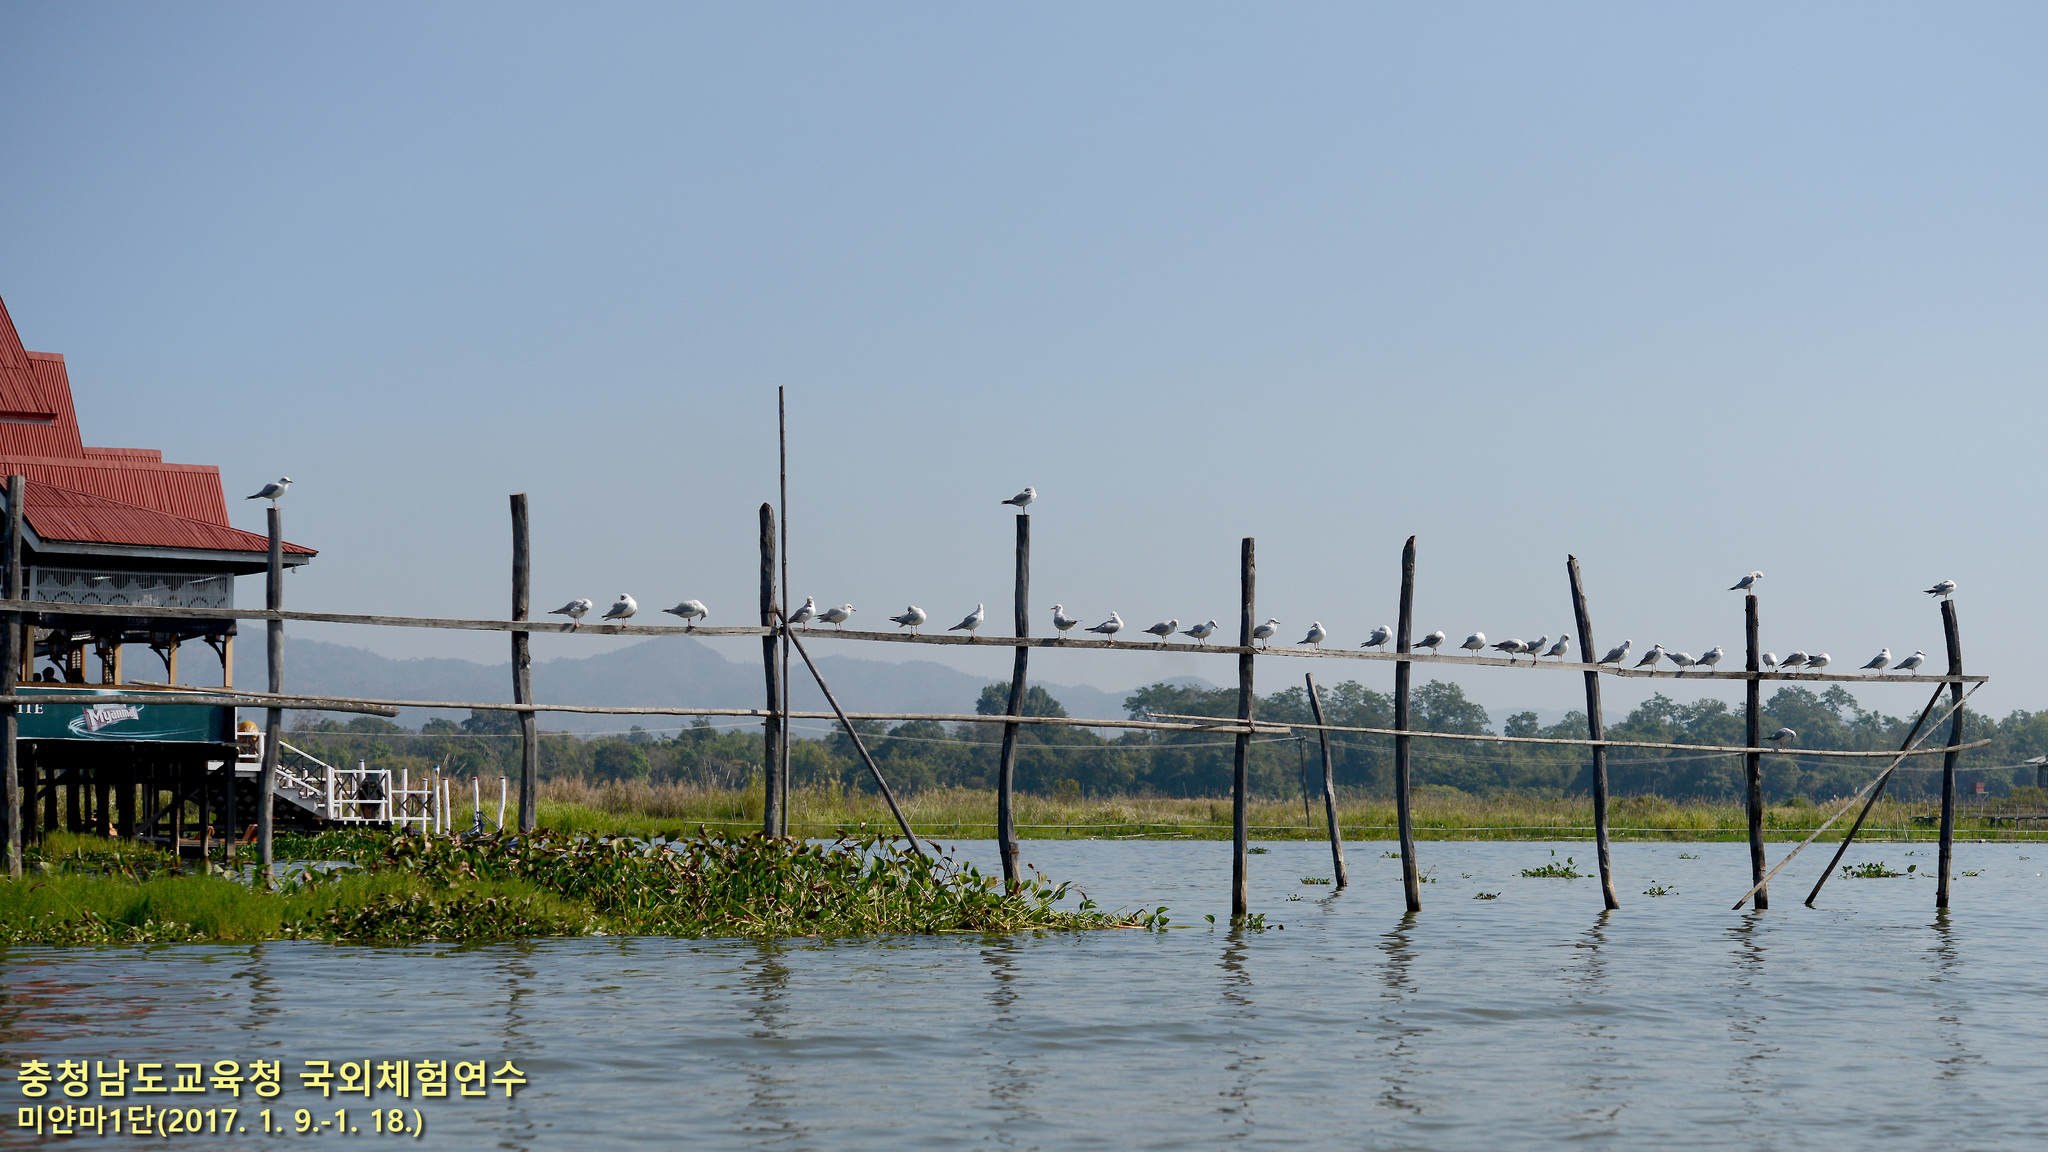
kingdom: Animalia
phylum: Chordata
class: Aves
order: Charadriiformes
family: Laridae
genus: Chroicocephalus
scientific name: Chroicocephalus brunnicephalus
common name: Brown-headed gull
